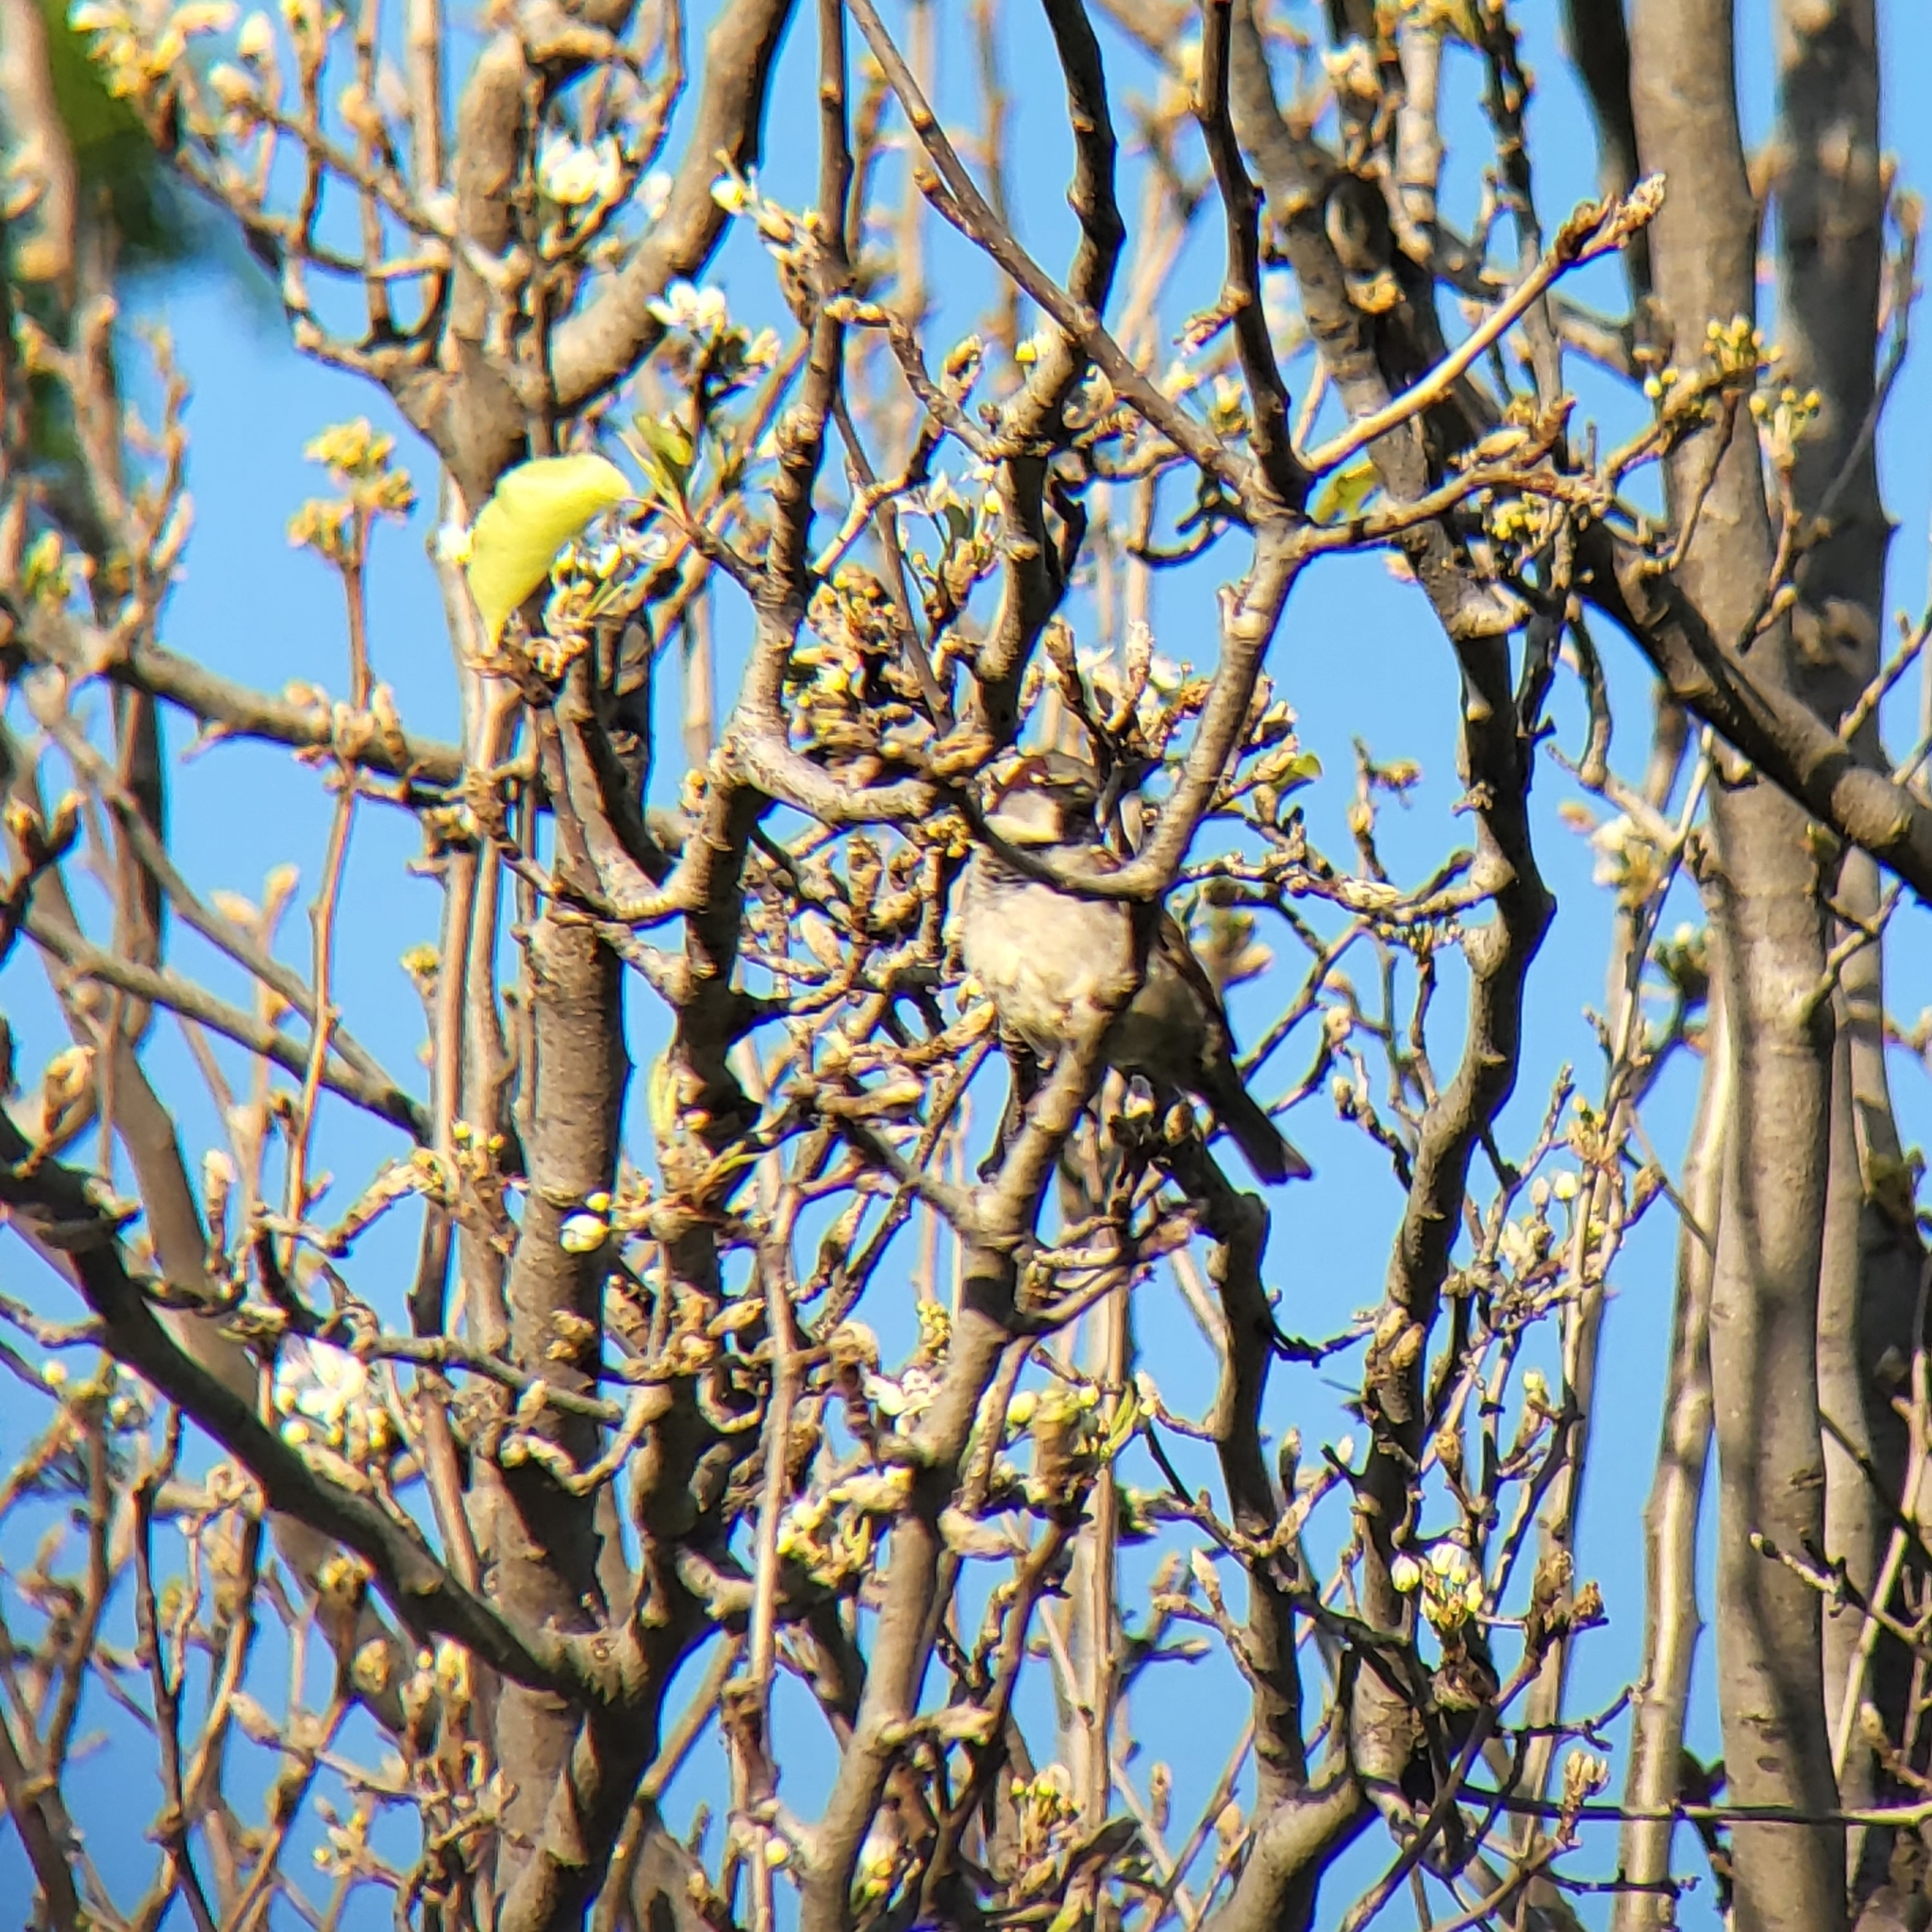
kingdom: Animalia
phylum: Chordata
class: Aves
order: Passeriformes
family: Passeridae
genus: Passer
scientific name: Passer domesticus
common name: House sparrow
